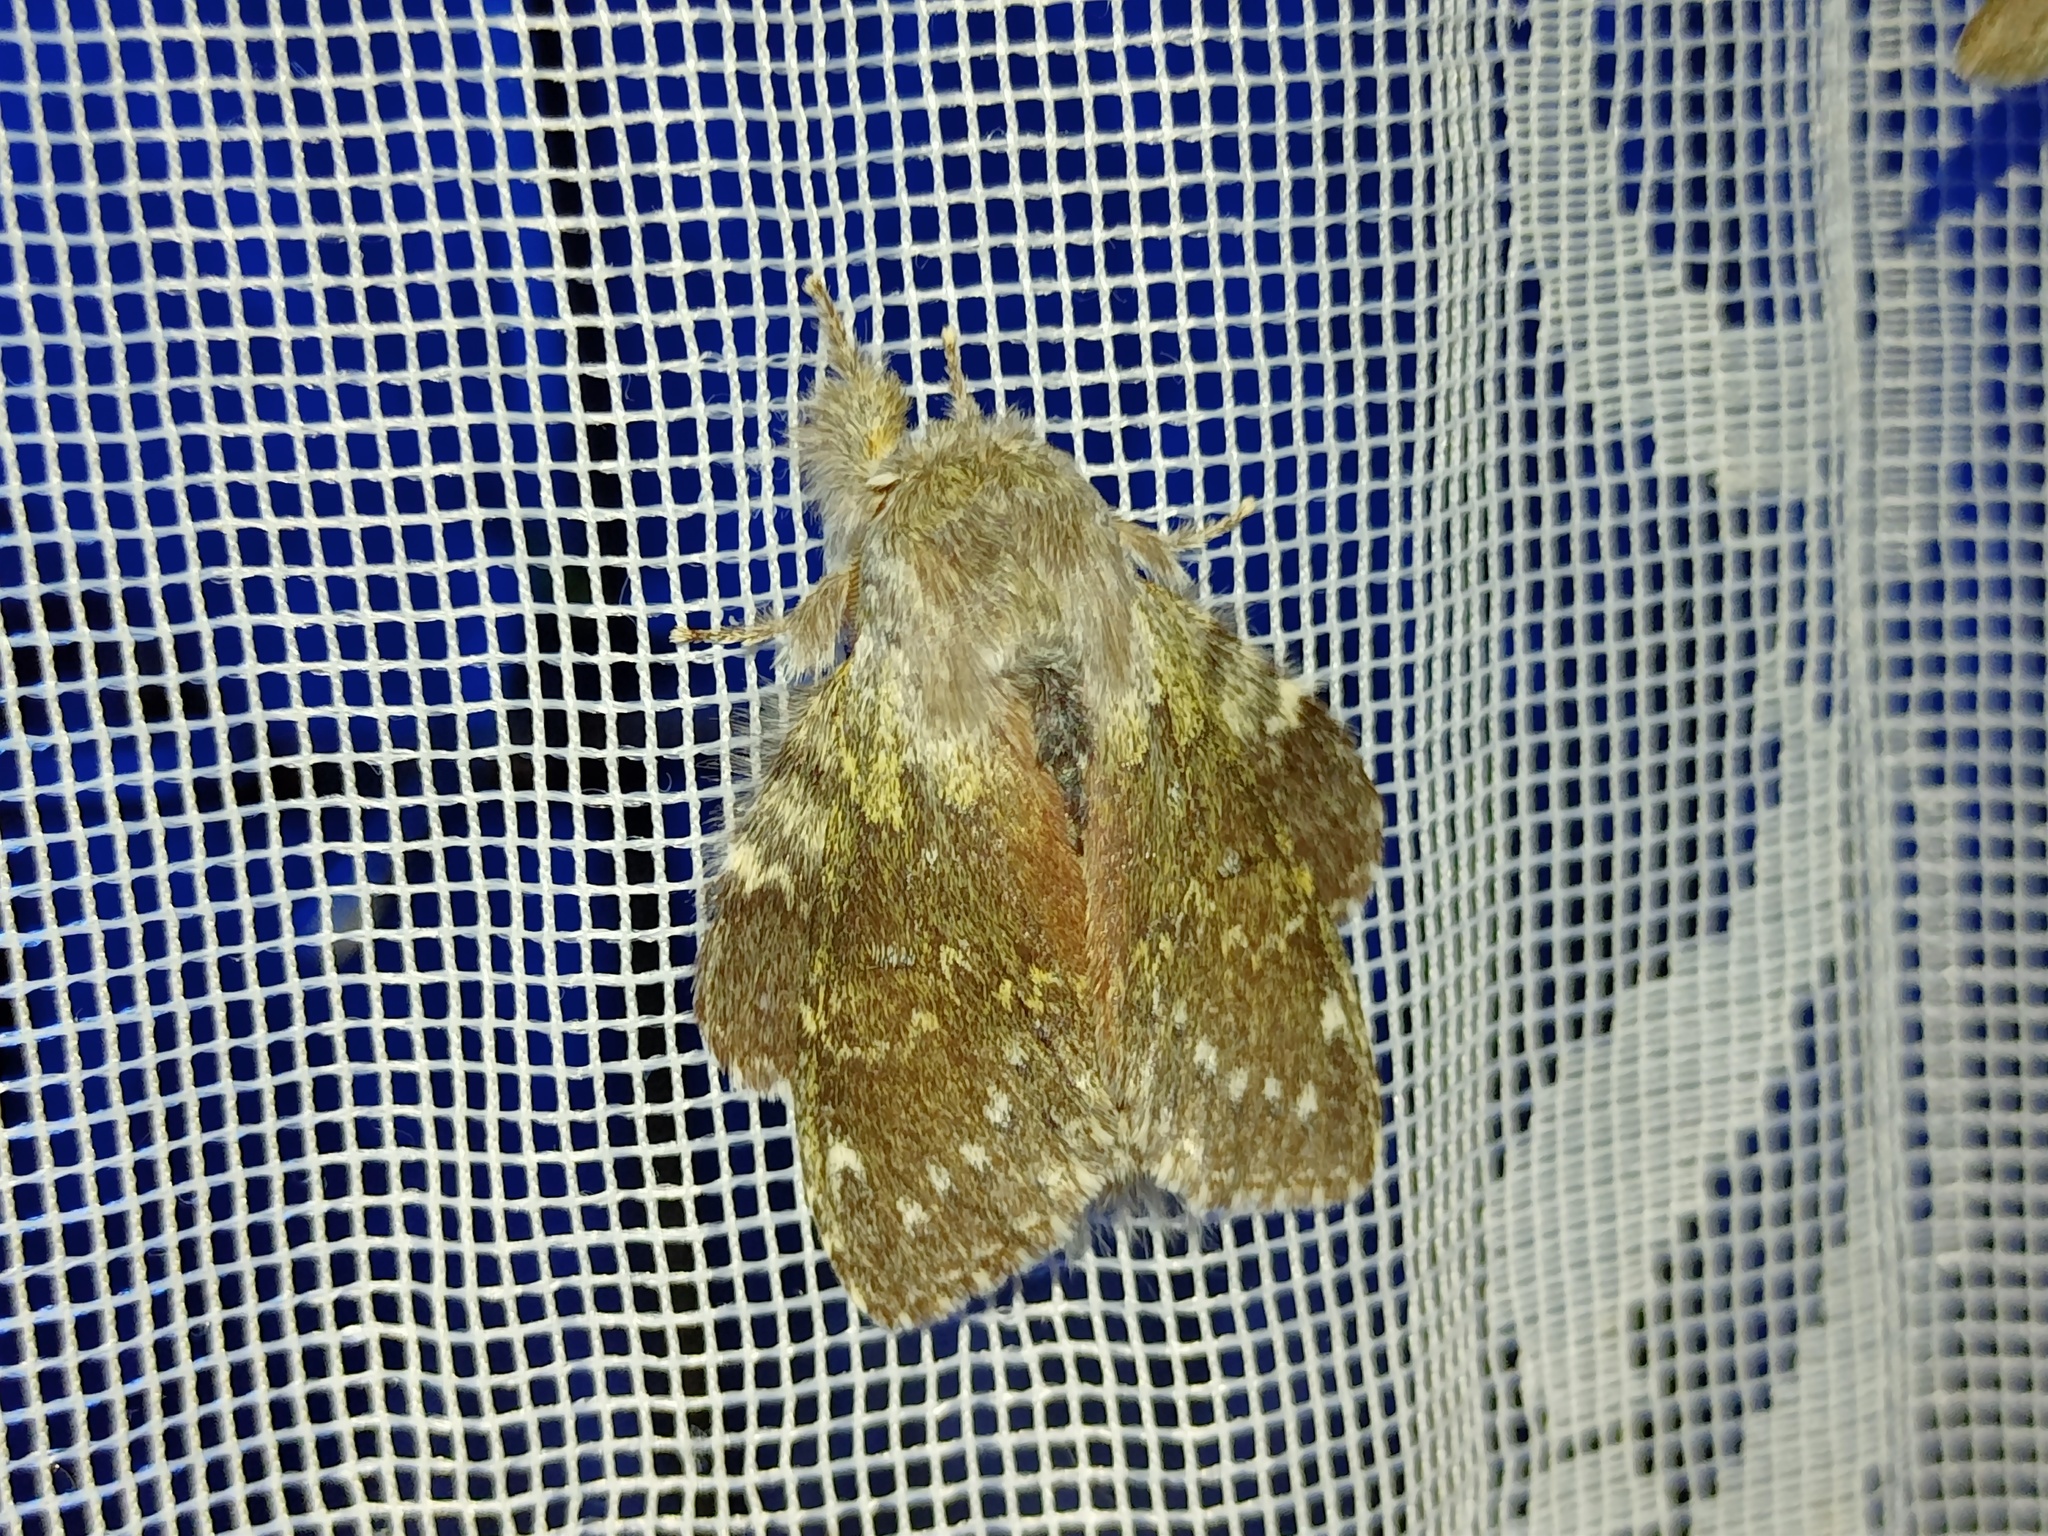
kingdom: Animalia
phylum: Arthropoda
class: Insecta
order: Lepidoptera
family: Notodontidae
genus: Stauropus
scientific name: Stauropus fagi
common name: Lobster moth
